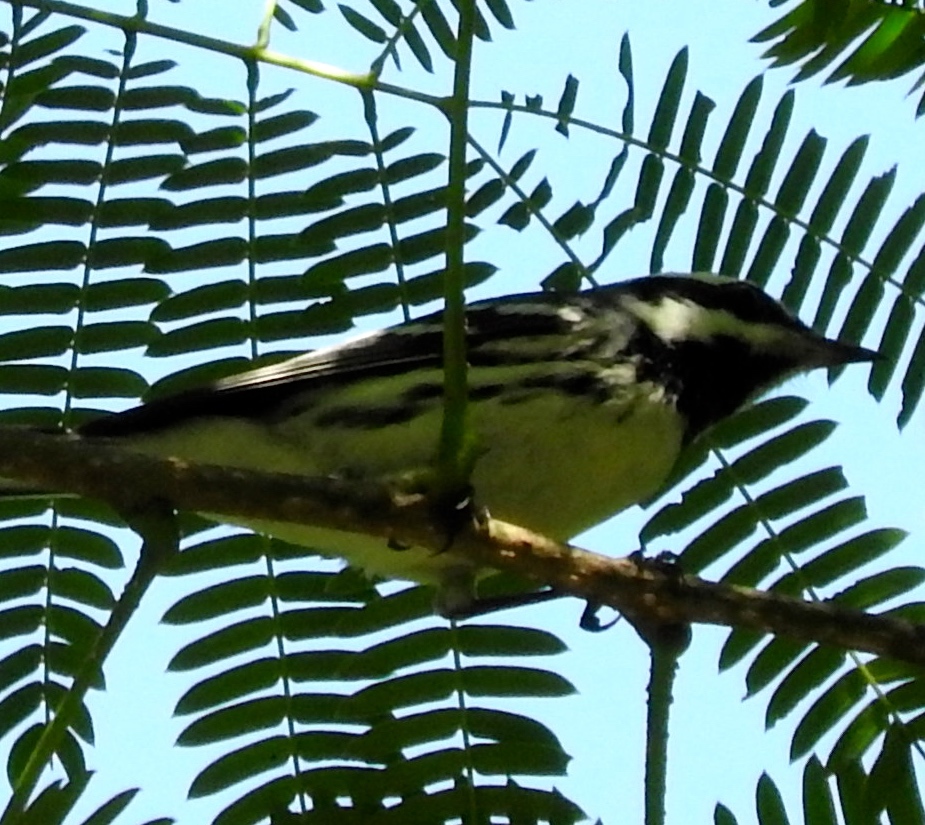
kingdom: Animalia
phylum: Chordata
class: Aves
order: Passeriformes
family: Parulidae
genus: Setophaga
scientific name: Setophaga nigrescens
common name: Black-throated gray warbler
